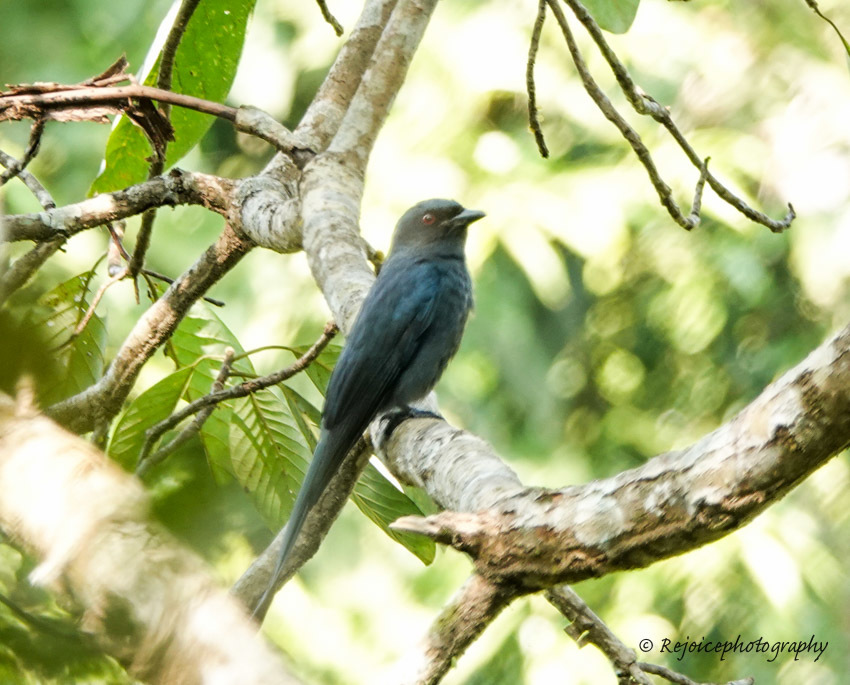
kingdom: Animalia
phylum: Chordata
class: Aves
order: Passeriformes
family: Dicruridae
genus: Dicrurus
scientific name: Dicrurus leucophaeus
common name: Ashy drongo
